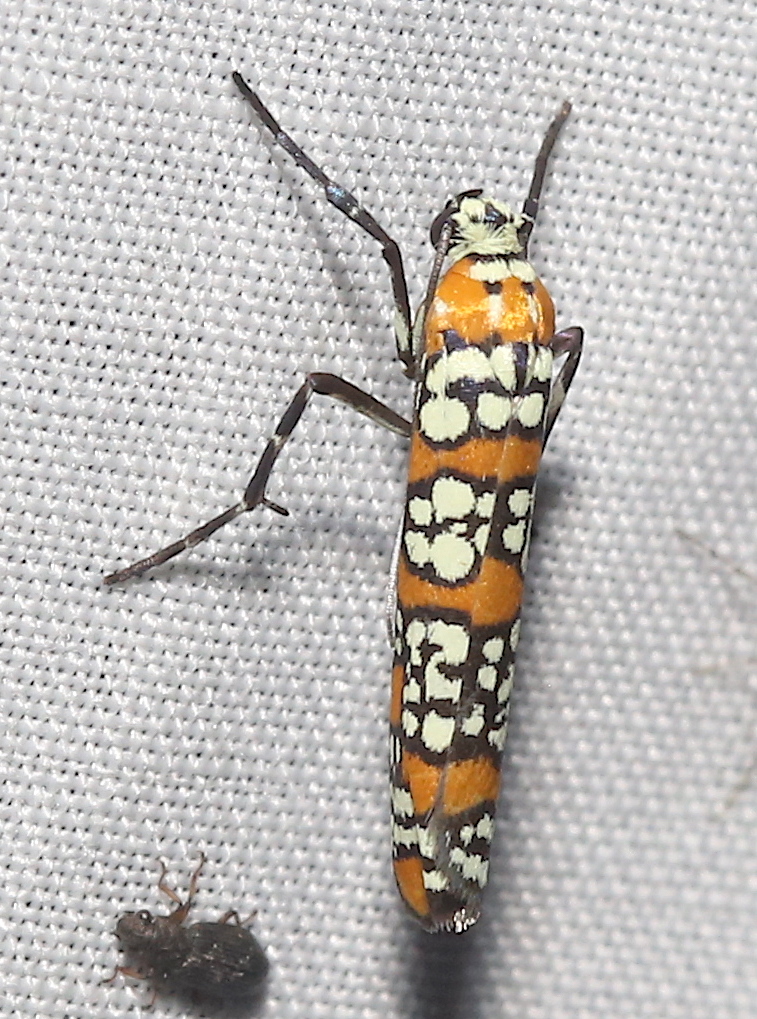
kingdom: Animalia
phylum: Arthropoda
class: Insecta
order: Lepidoptera
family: Attevidae
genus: Atteva
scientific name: Atteva punctella
